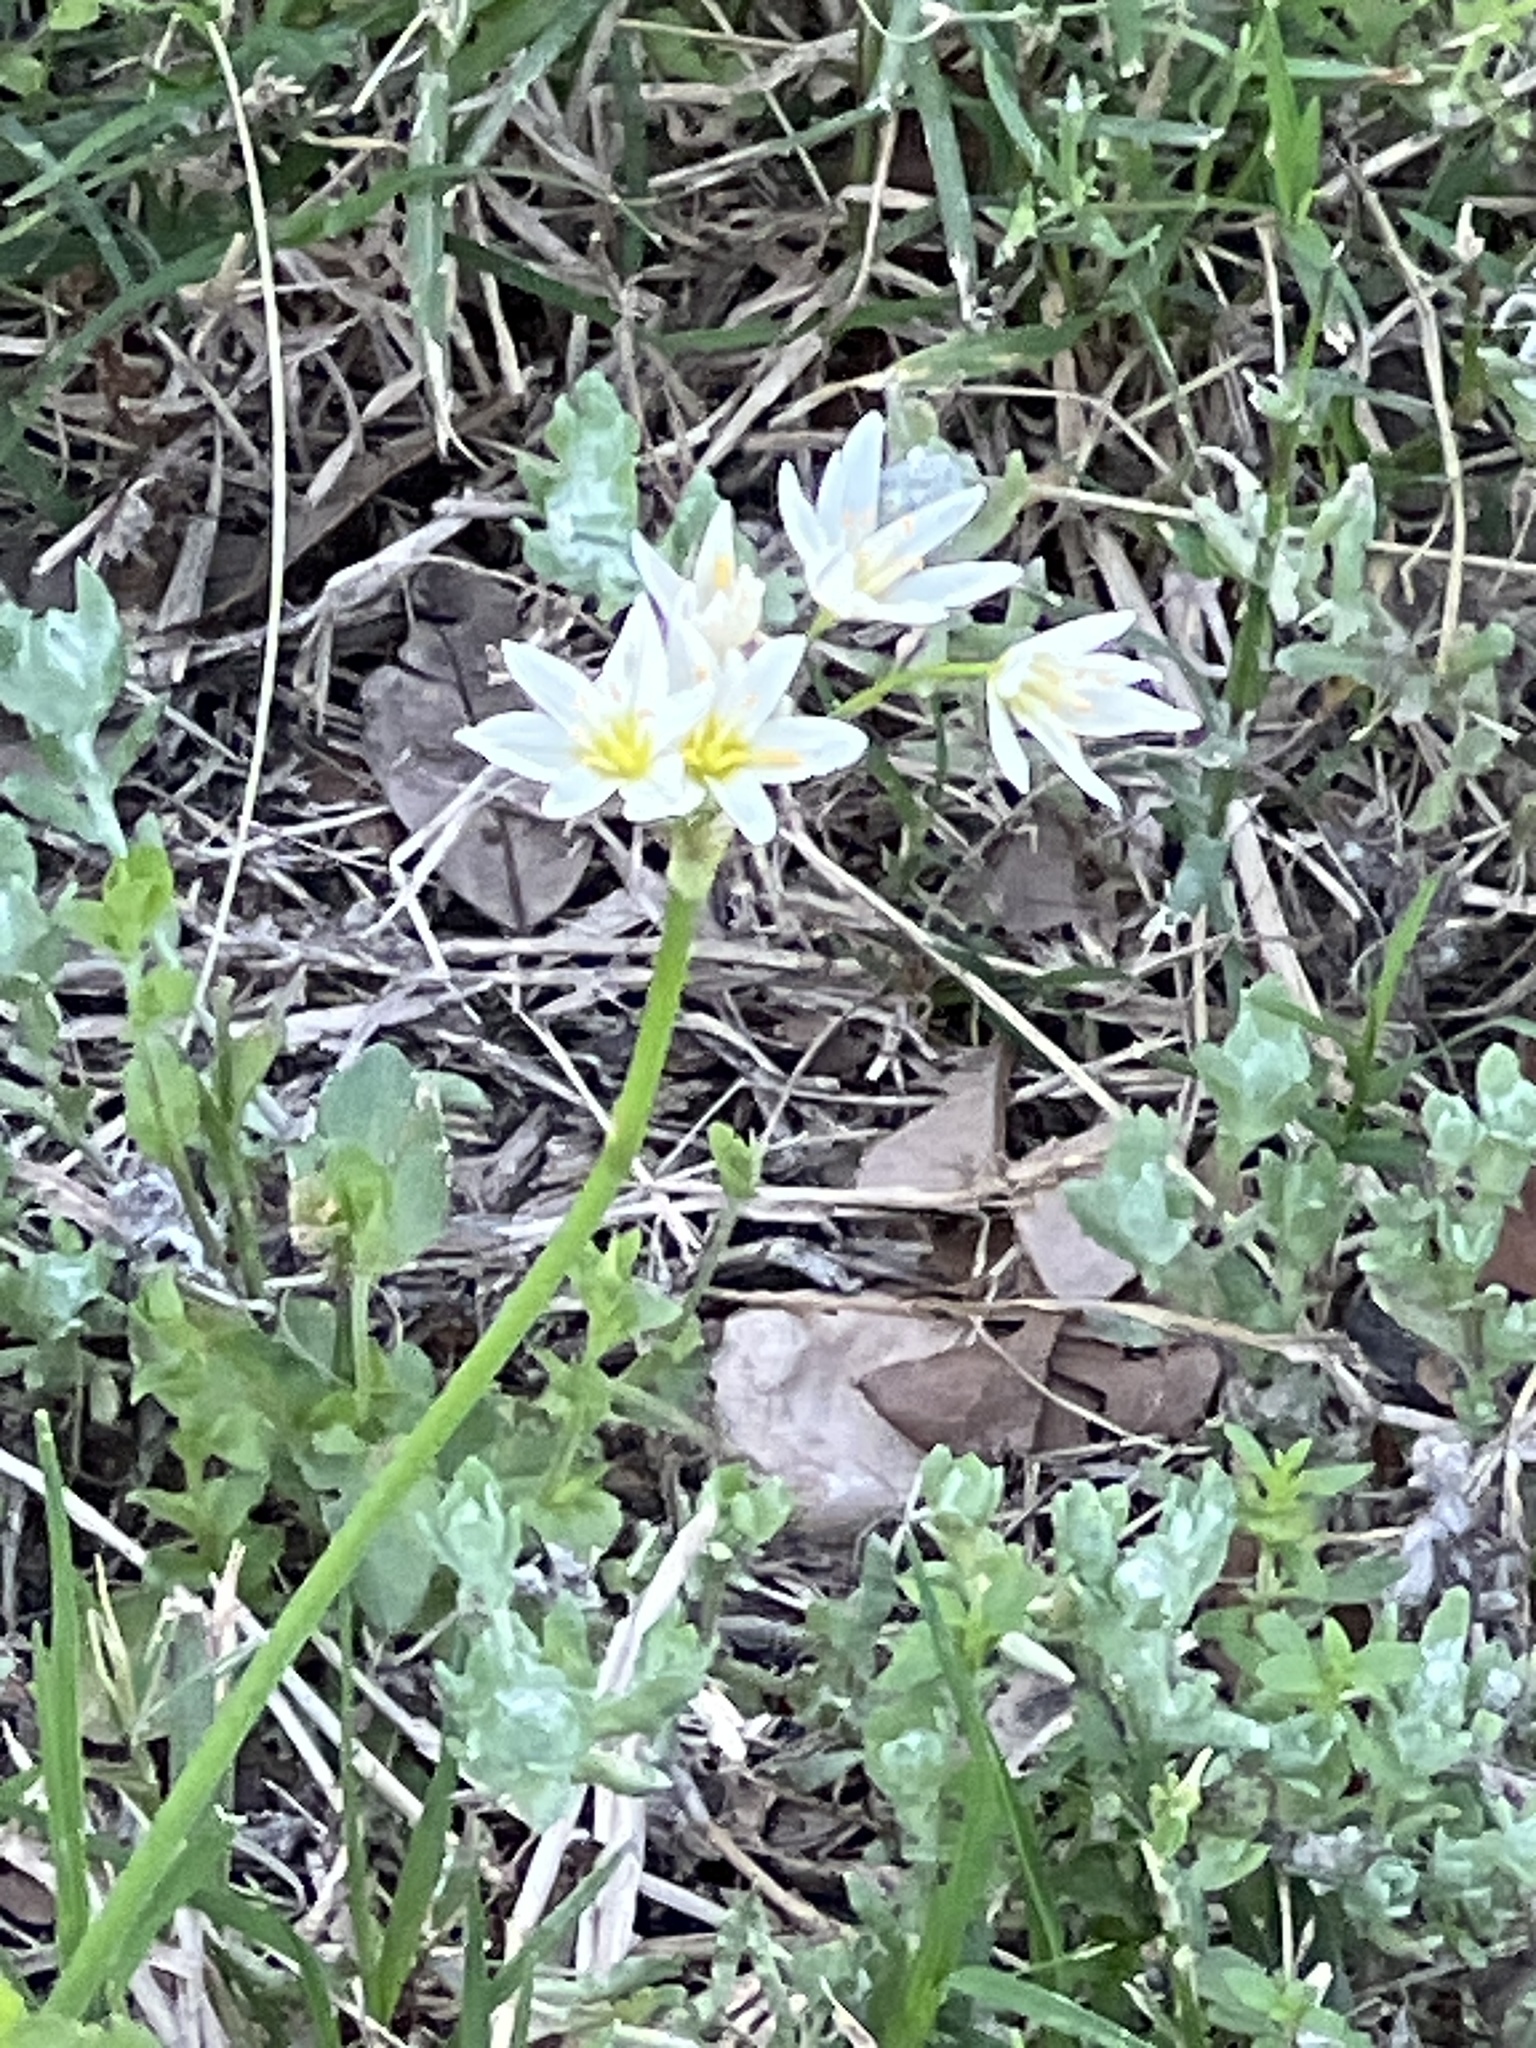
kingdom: Plantae
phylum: Tracheophyta
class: Liliopsida
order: Asparagales
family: Amaryllidaceae
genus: Nothoscordum
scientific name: Nothoscordum bivalve
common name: Crow-poison
